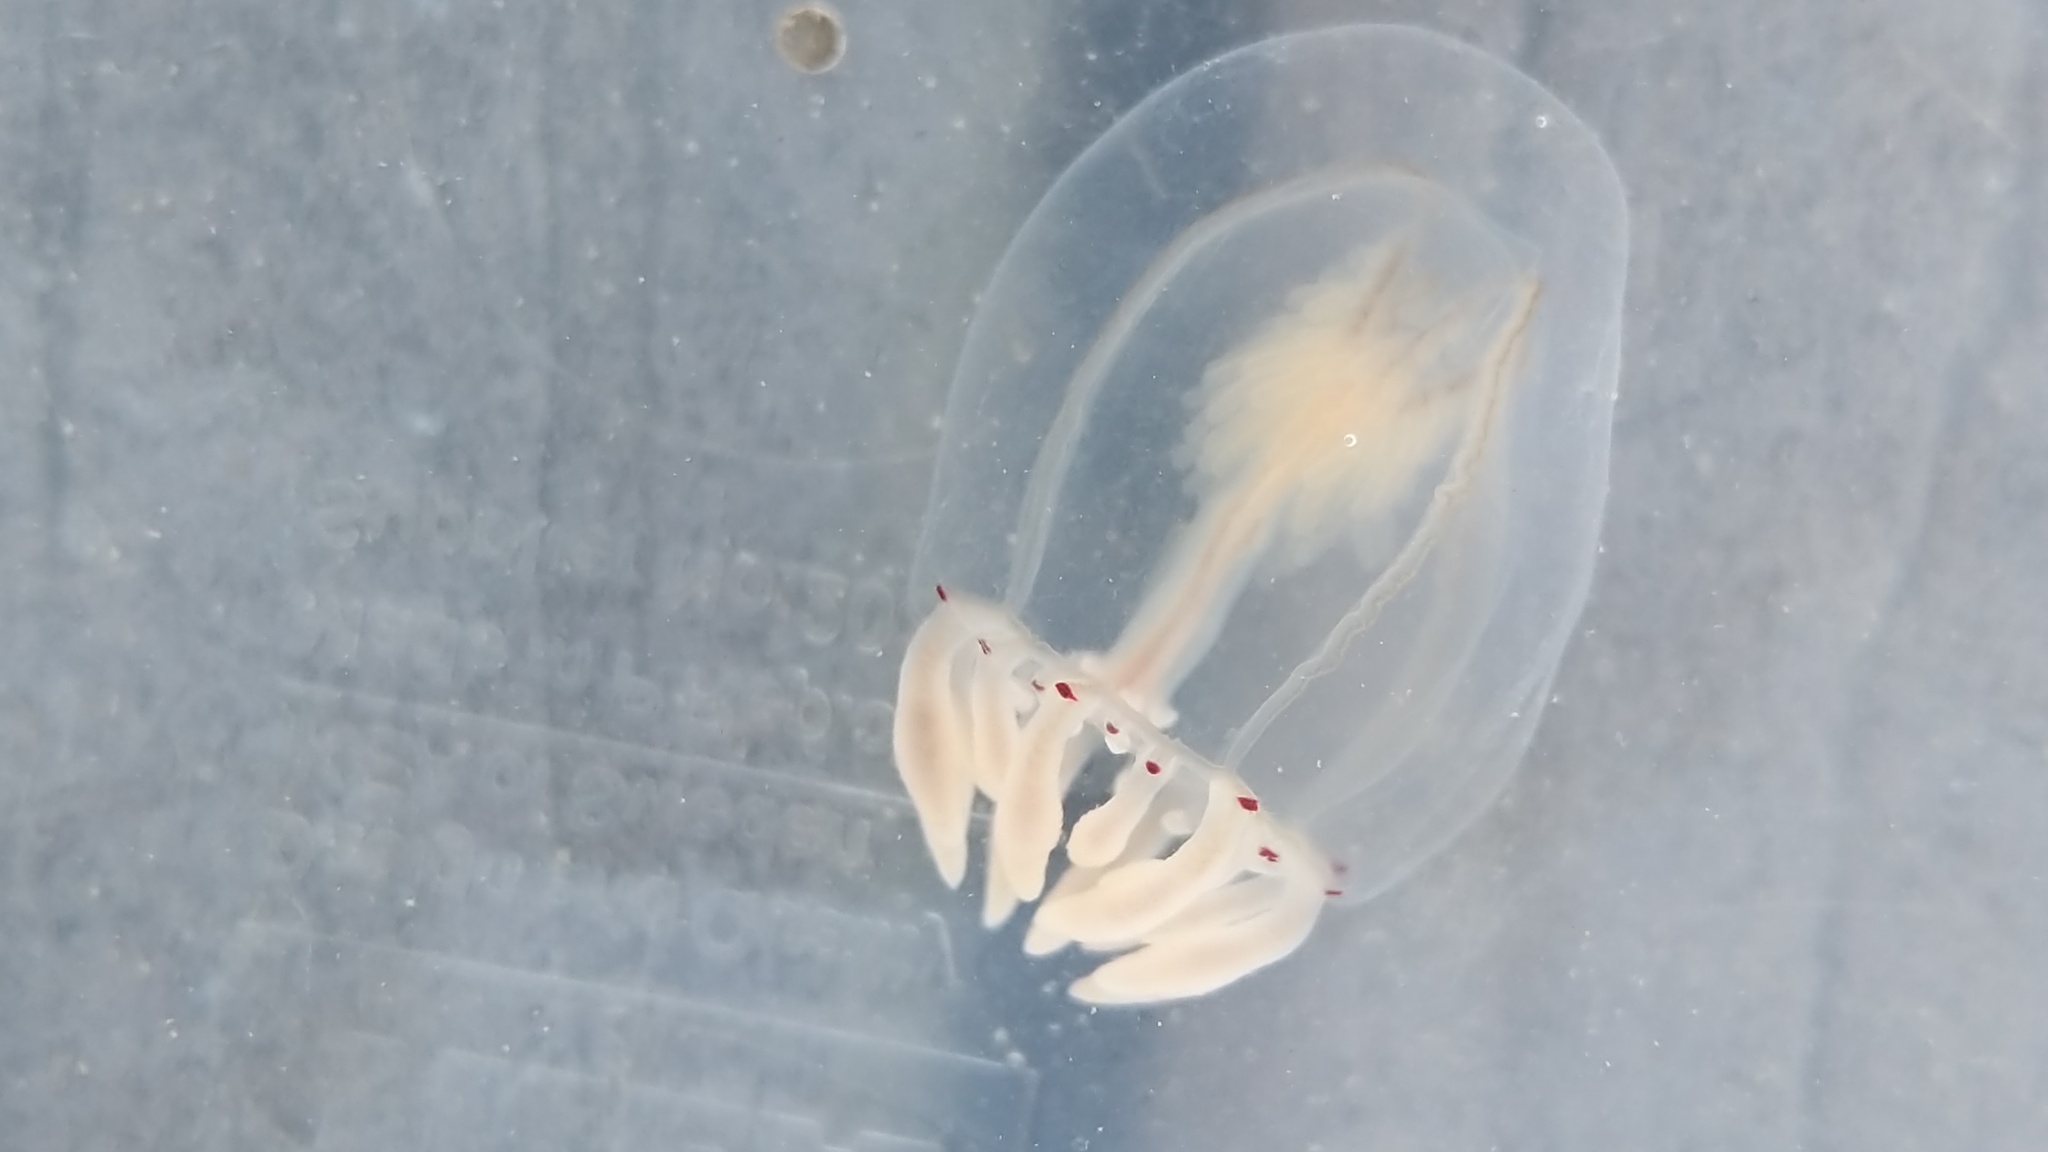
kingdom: Animalia
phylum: Cnidaria
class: Hydrozoa
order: Anthoathecata
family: Corynidae
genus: Polyorchis
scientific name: Polyorchis haplus
